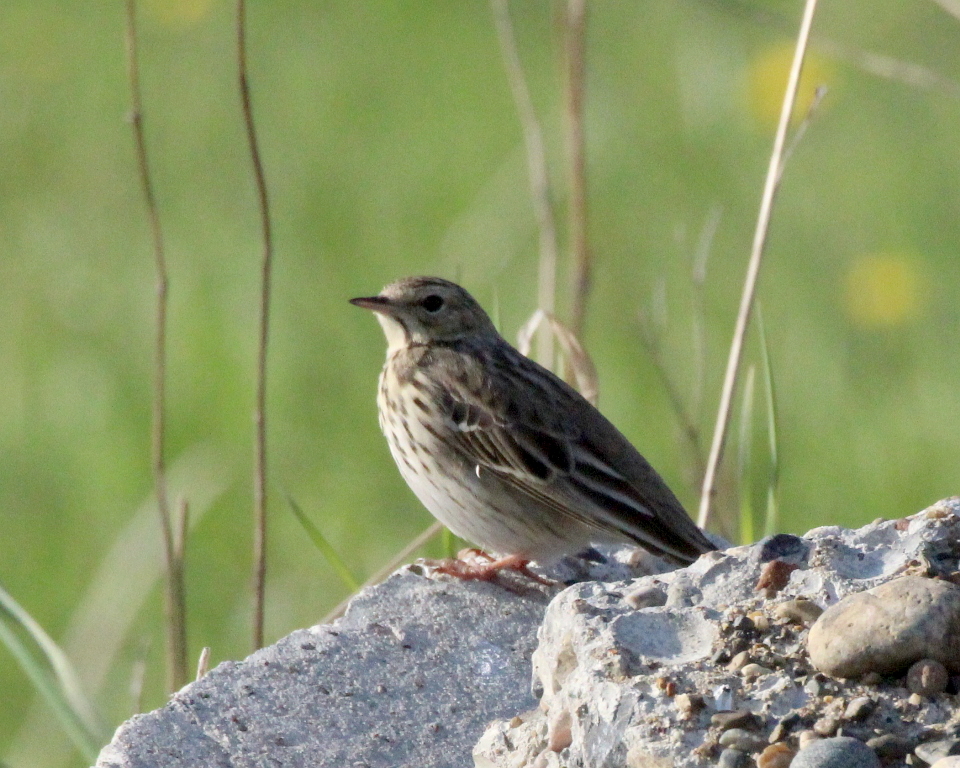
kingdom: Animalia
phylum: Chordata
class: Aves
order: Passeriformes
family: Motacillidae
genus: Anthus
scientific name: Anthus trivialis
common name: Tree pipit
